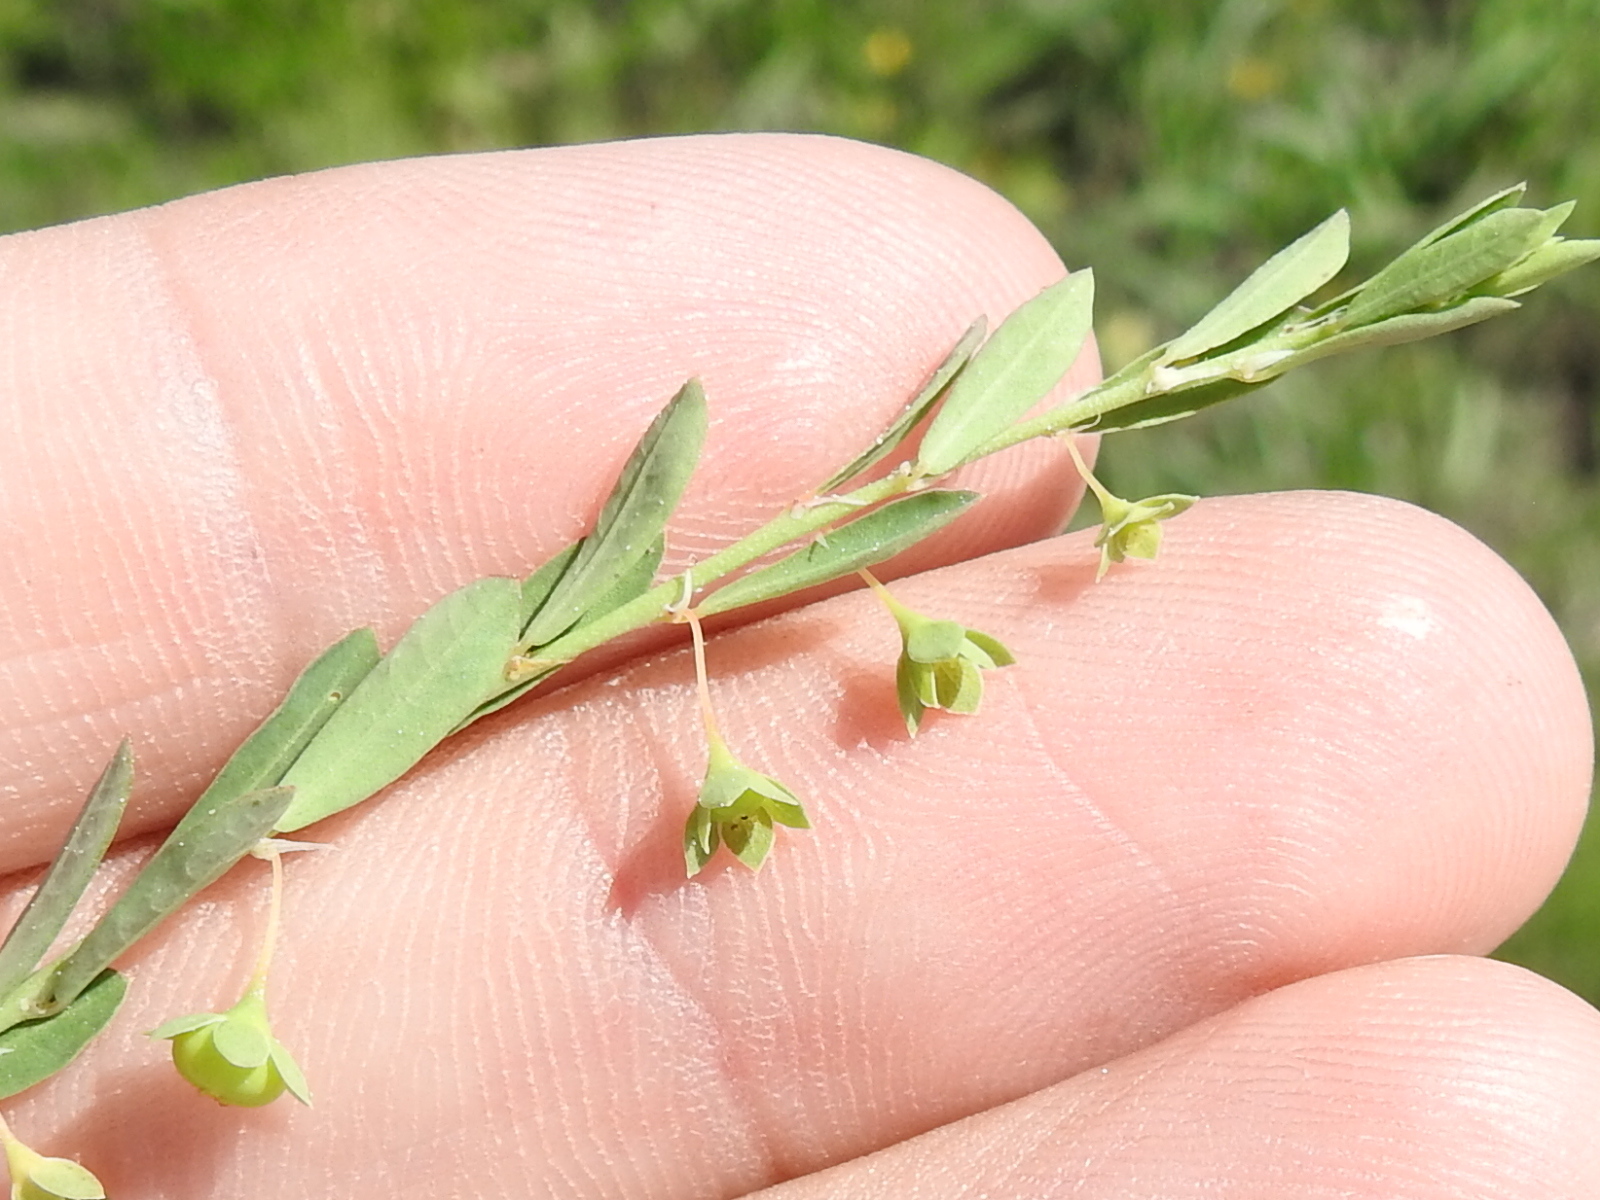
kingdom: Plantae
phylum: Tracheophyta
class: Magnoliopsida
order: Malpighiales
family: Phyllanthaceae
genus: Phyllanthus
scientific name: Phyllanthus polygonoides
